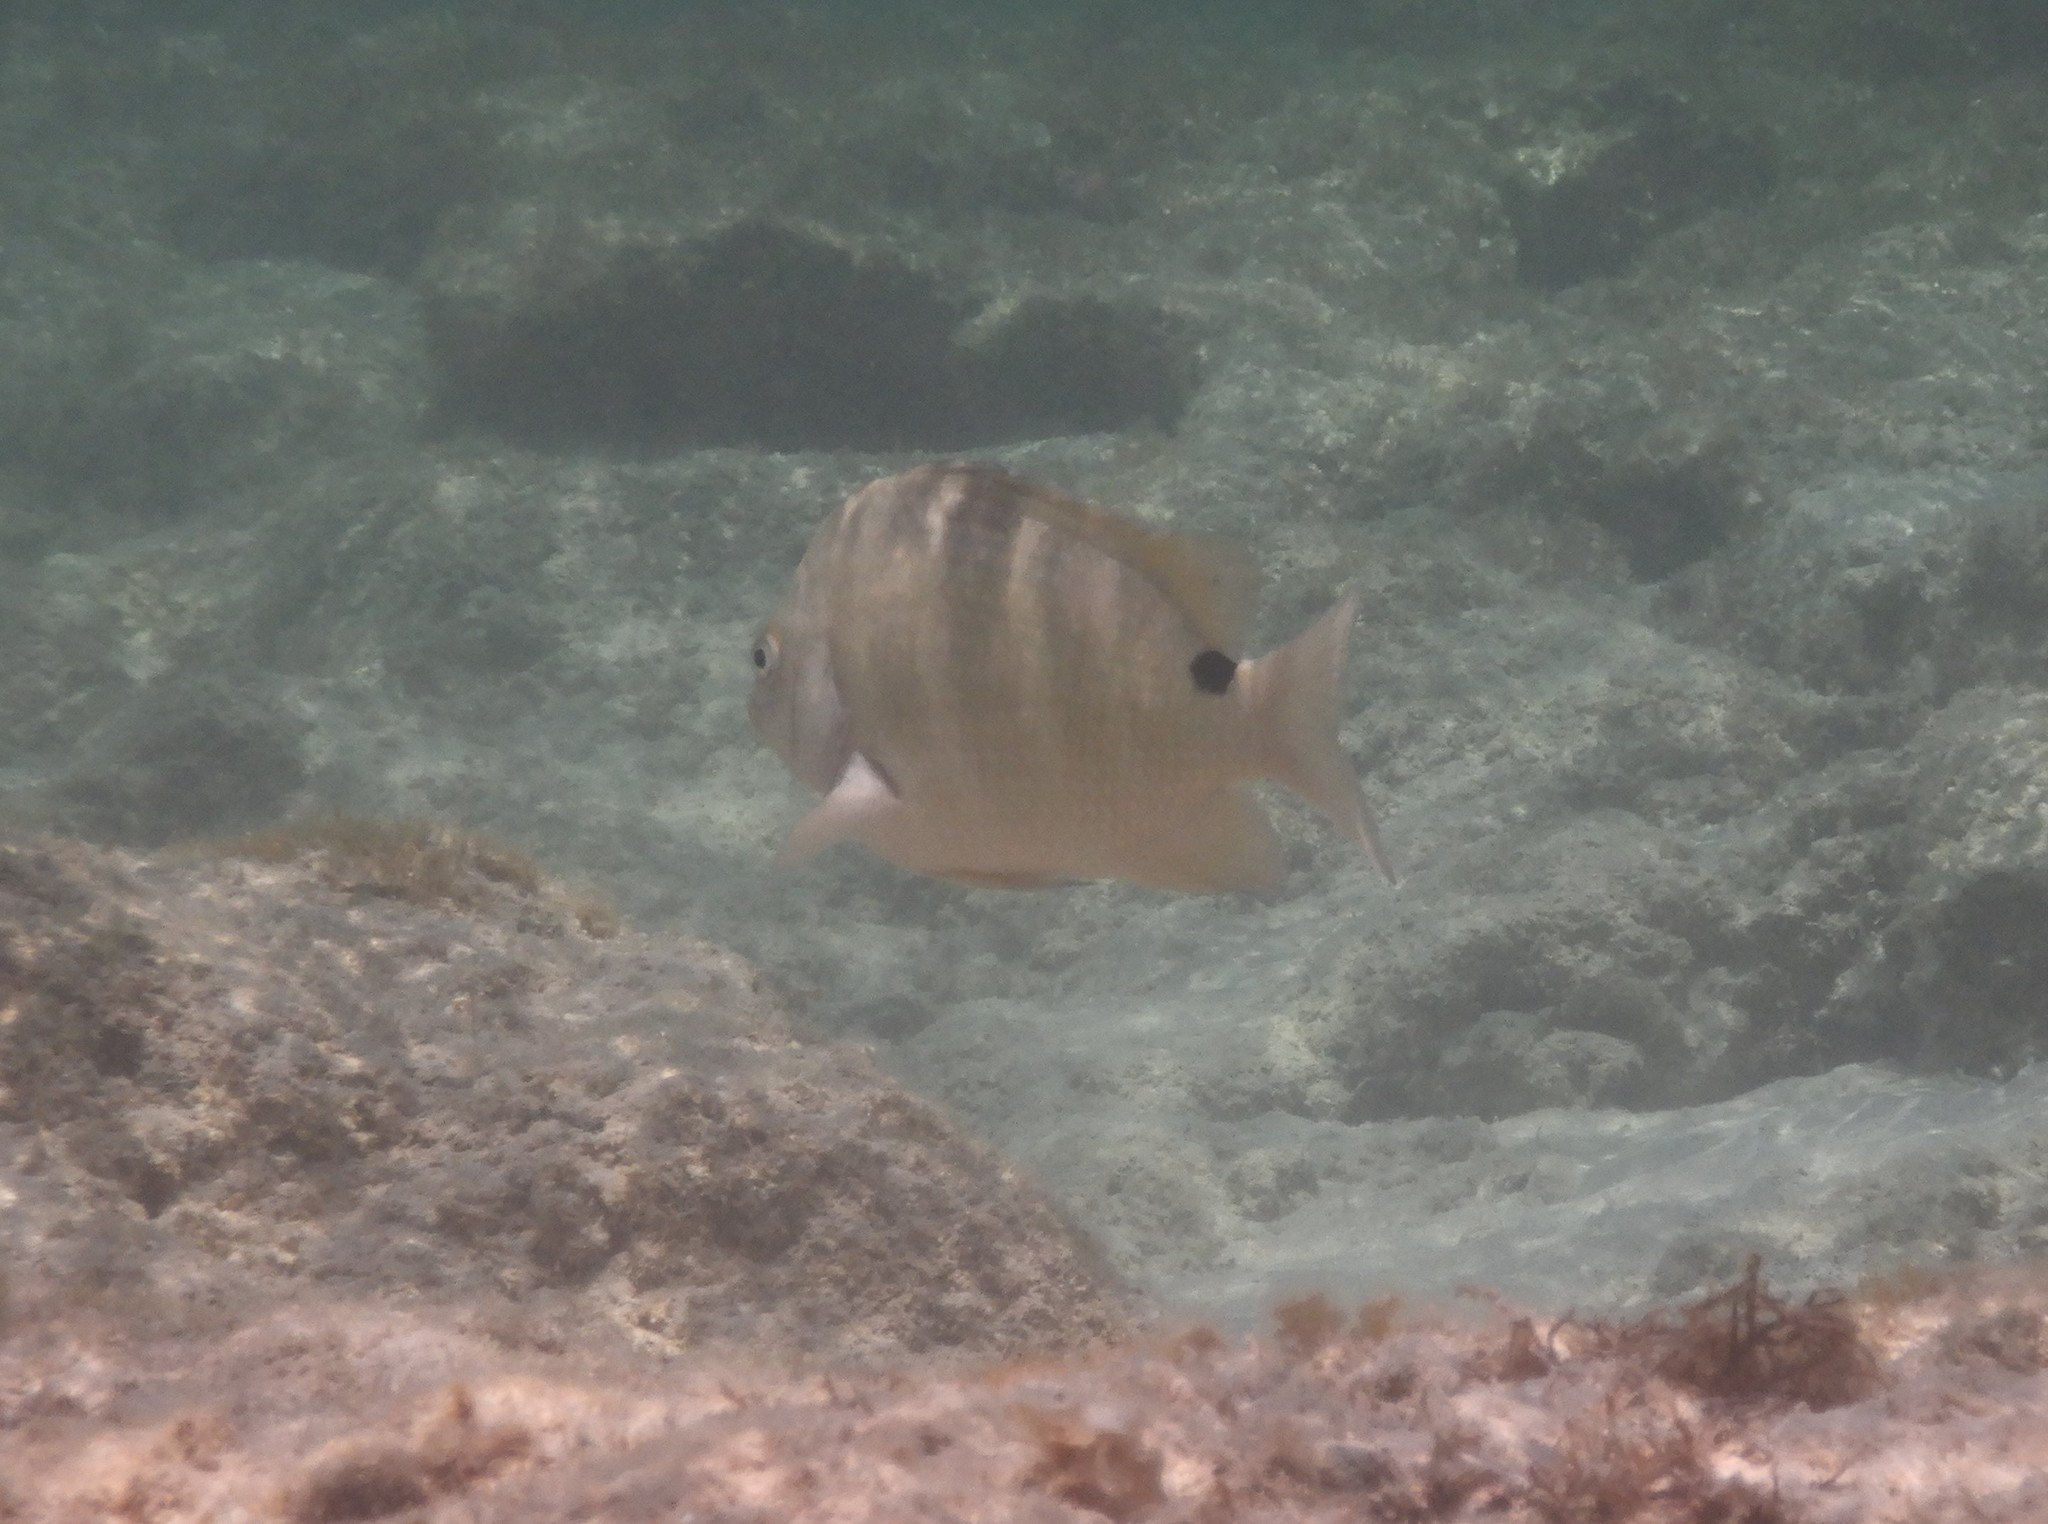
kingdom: Animalia
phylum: Chordata
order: Perciformes
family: Pomacentridae
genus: Abudefduf
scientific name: Abudefduf sordidus
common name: Blackspot sergeant
